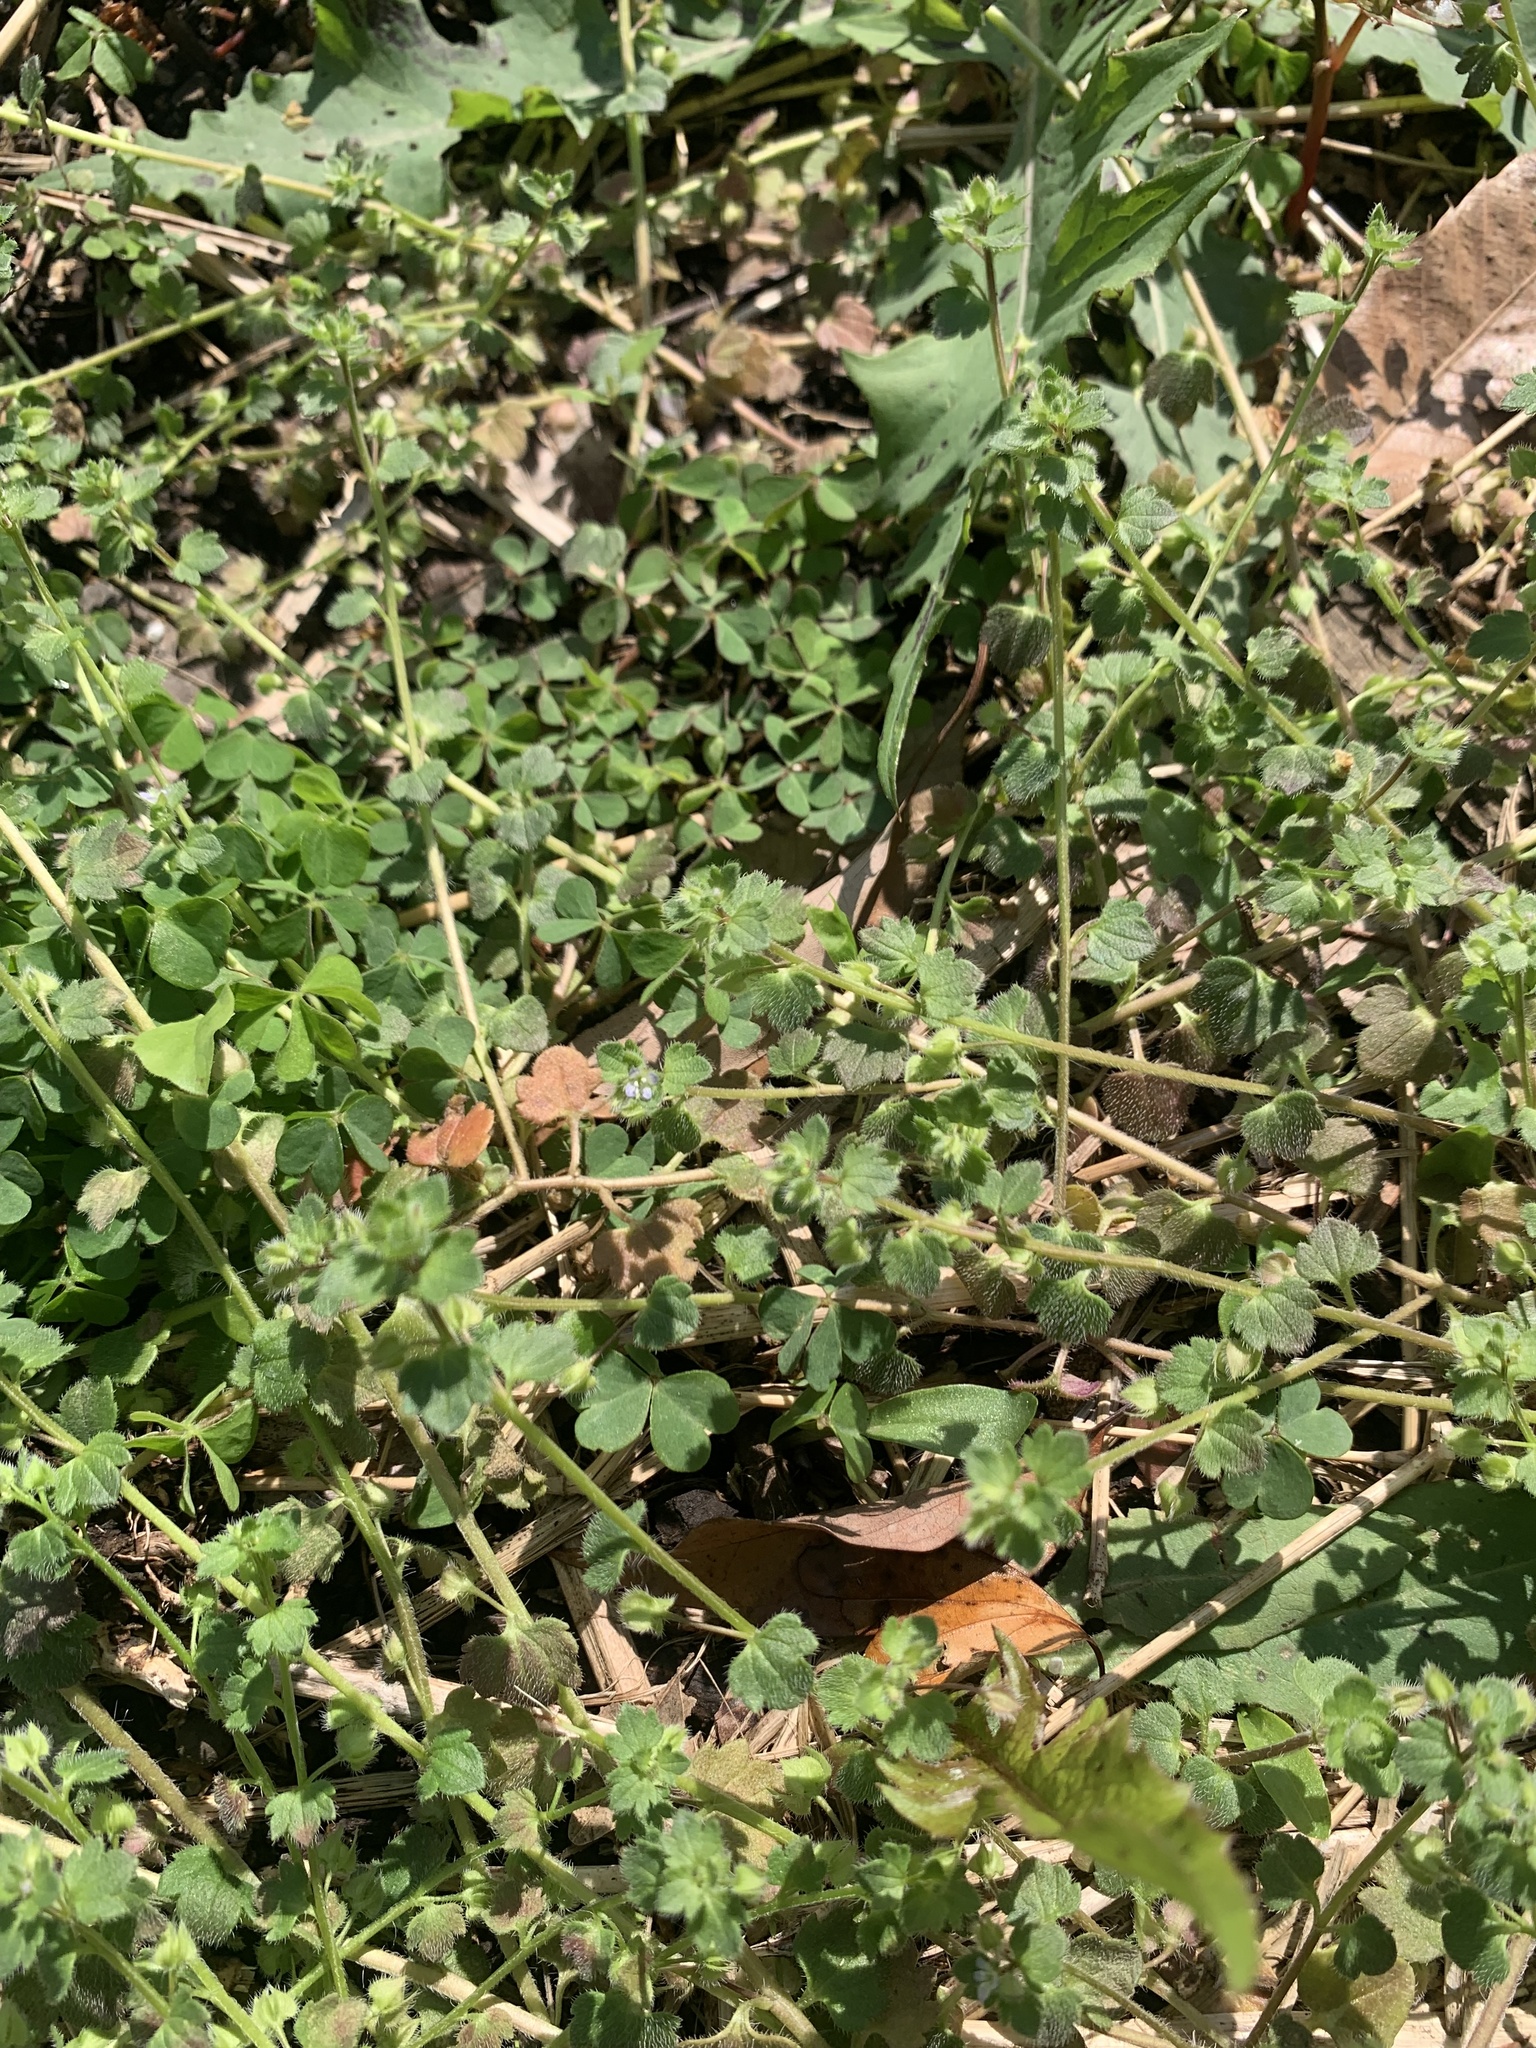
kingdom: Plantae
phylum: Tracheophyta
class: Magnoliopsida
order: Lamiales
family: Plantaginaceae
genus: Veronica
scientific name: Veronica hederifolia
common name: Ivy-leaved speedwell
